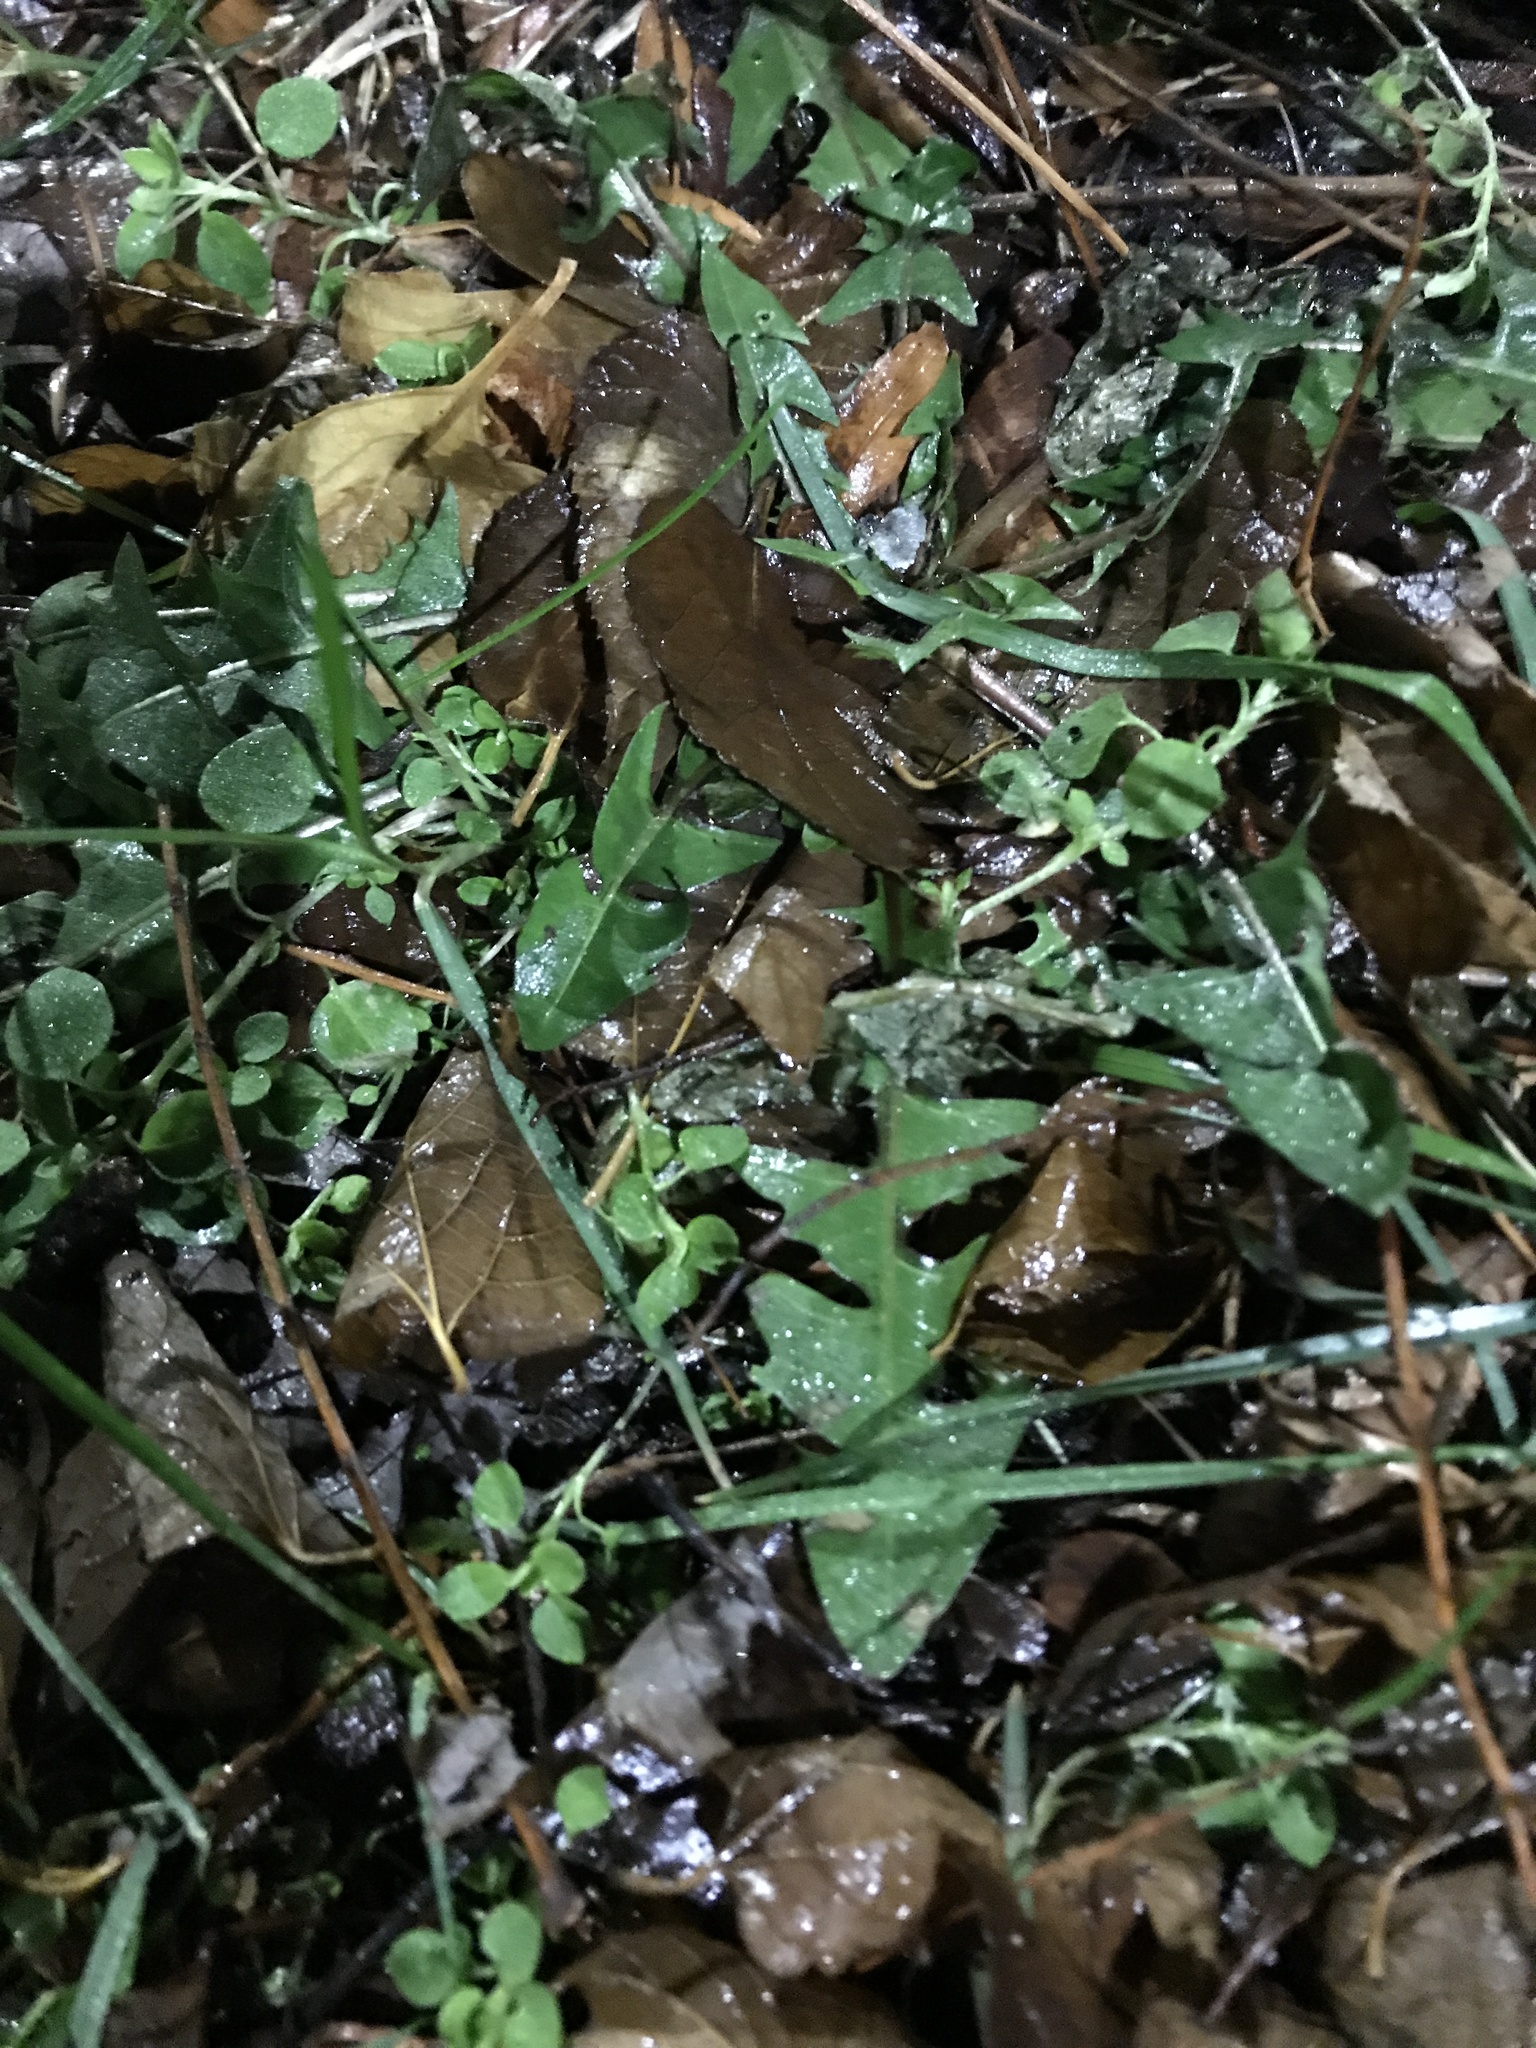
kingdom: Plantae
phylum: Tracheophyta
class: Magnoliopsida
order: Asterales
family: Asteraceae
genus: Taraxacum
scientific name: Taraxacum officinale
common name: Common dandelion
